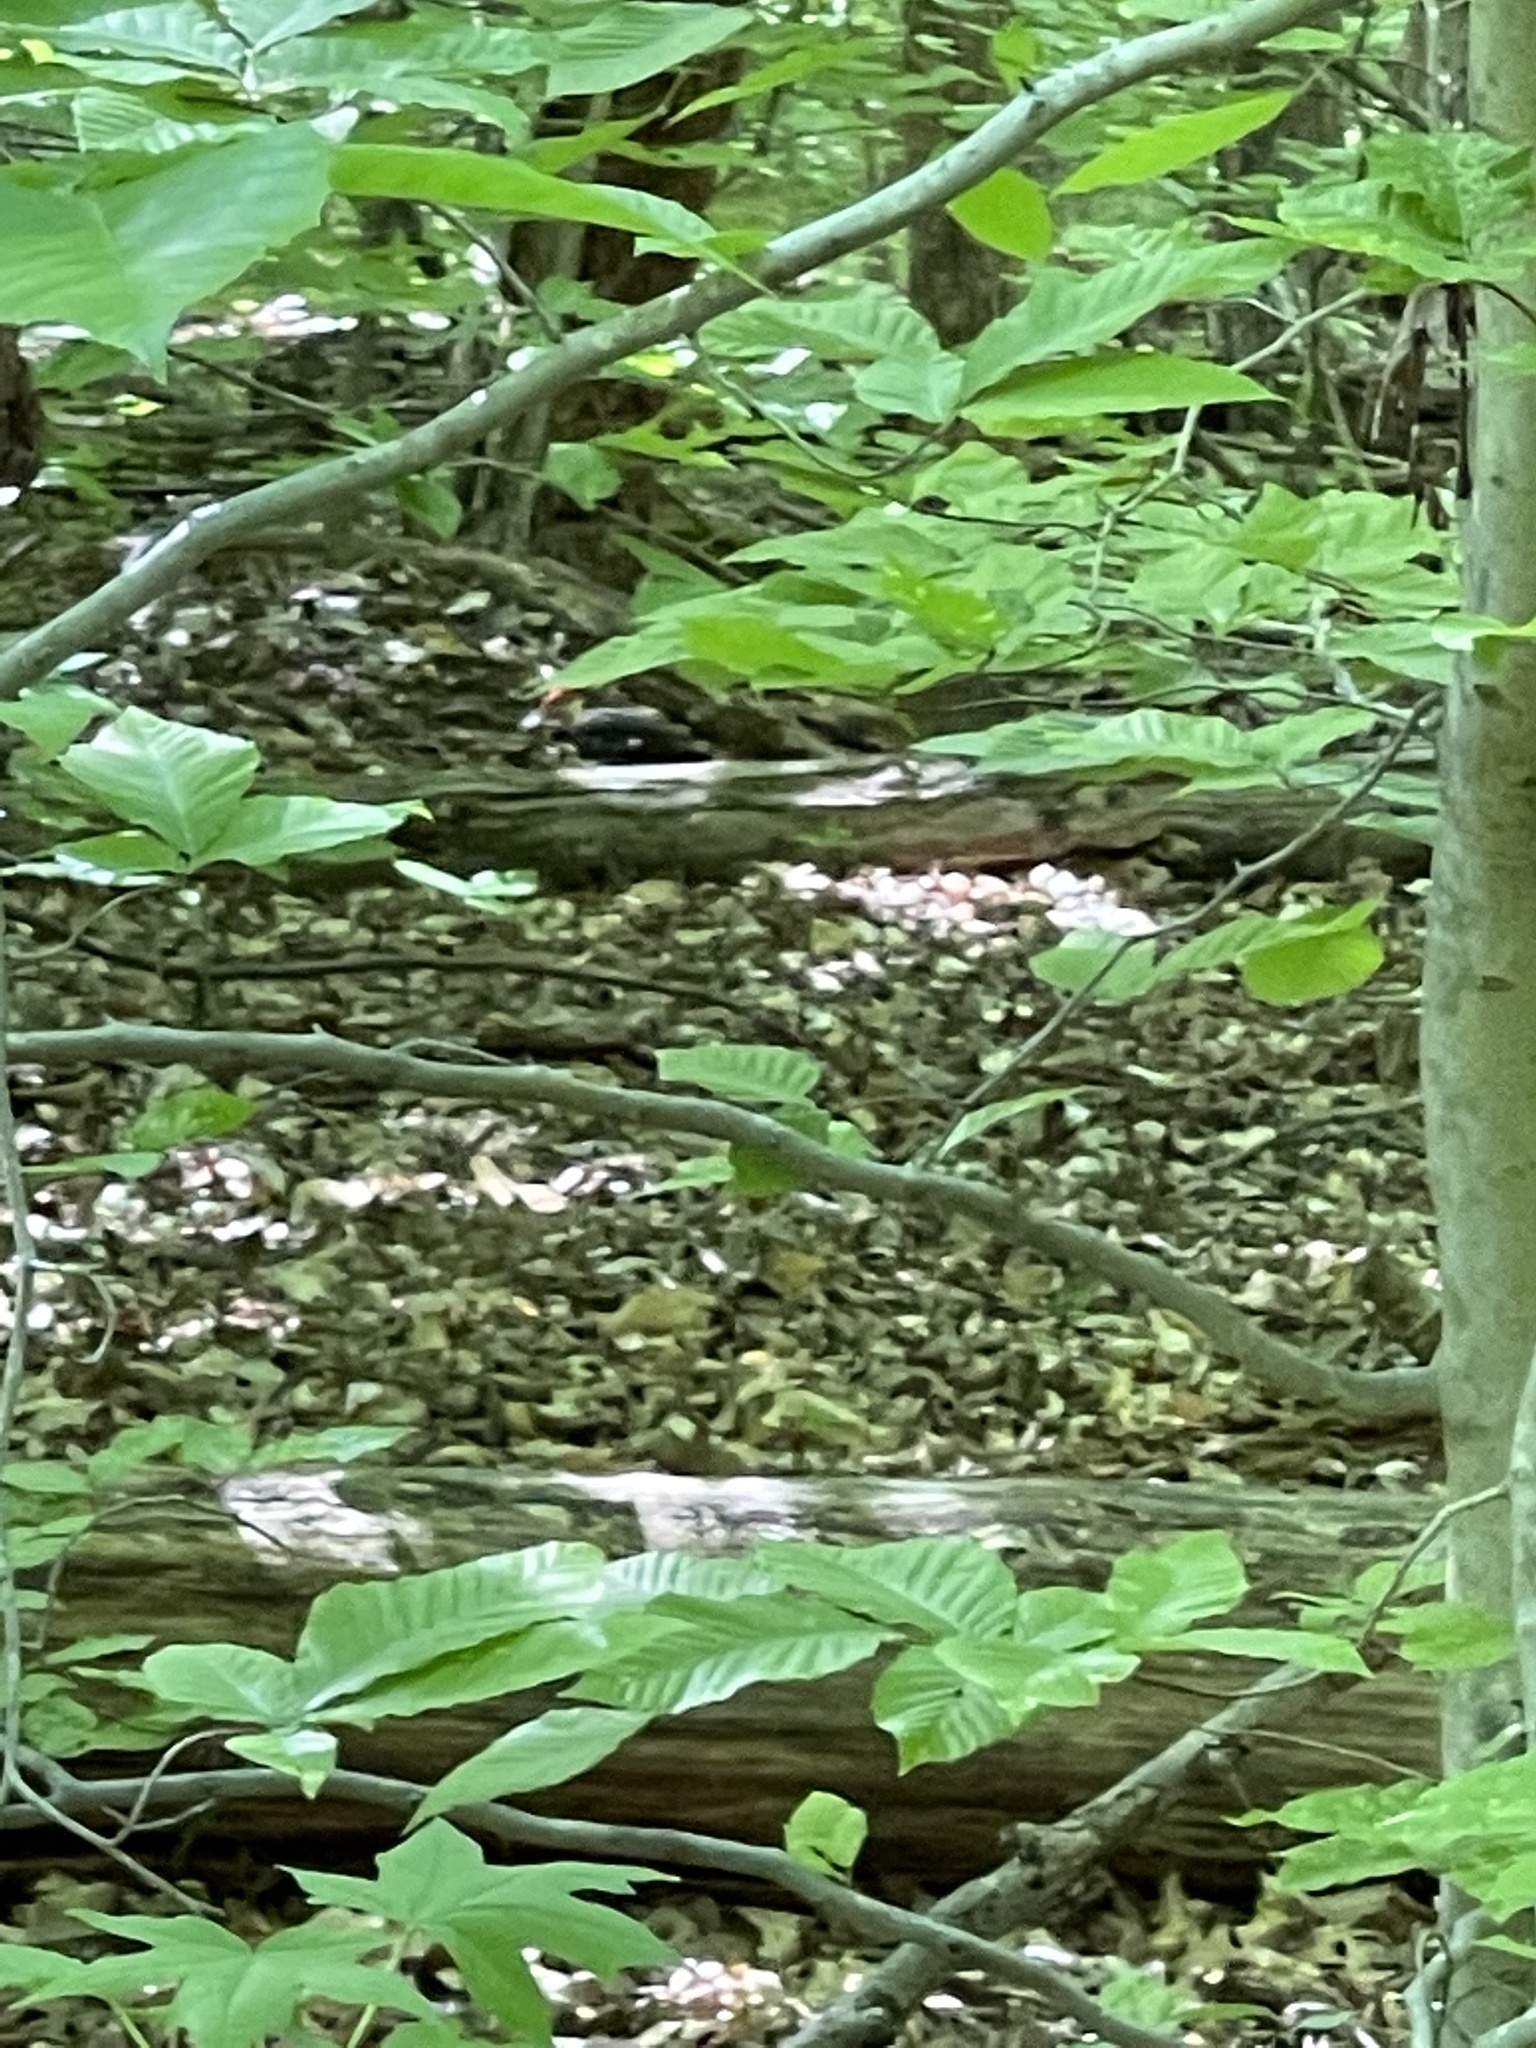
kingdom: Animalia
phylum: Chordata
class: Aves
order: Piciformes
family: Picidae
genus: Dryocopus
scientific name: Dryocopus pileatus
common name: Pileated woodpecker
